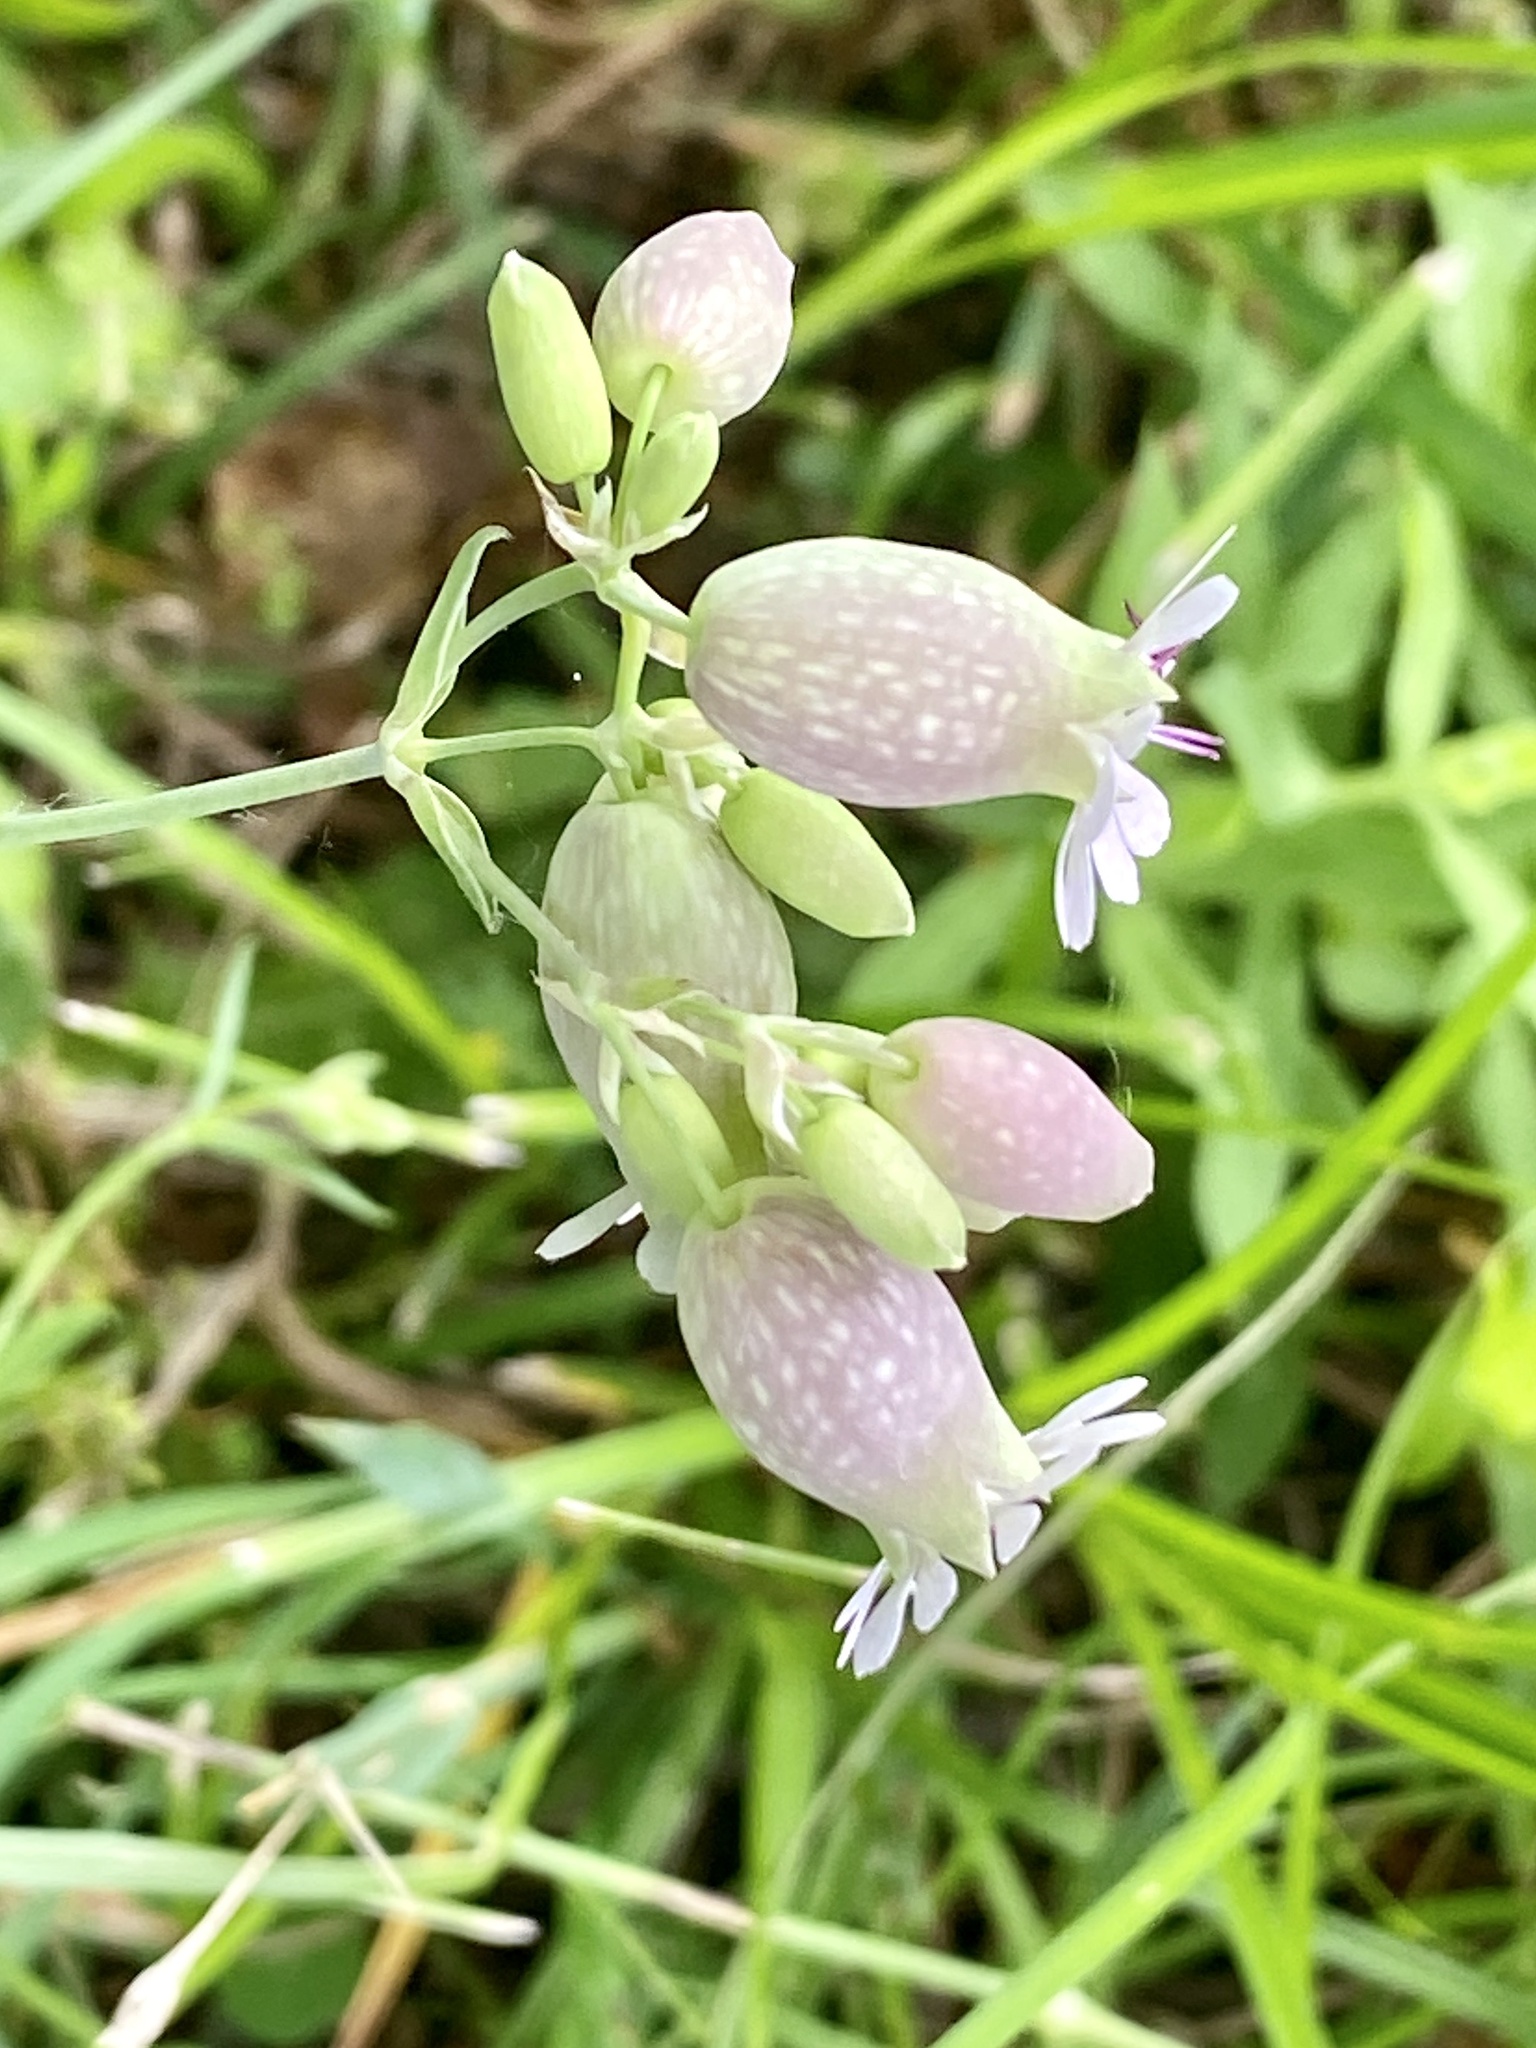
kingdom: Plantae
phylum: Tracheophyta
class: Magnoliopsida
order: Caryophyllales
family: Caryophyllaceae
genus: Silene
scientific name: Silene vulgaris
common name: Bladder campion
